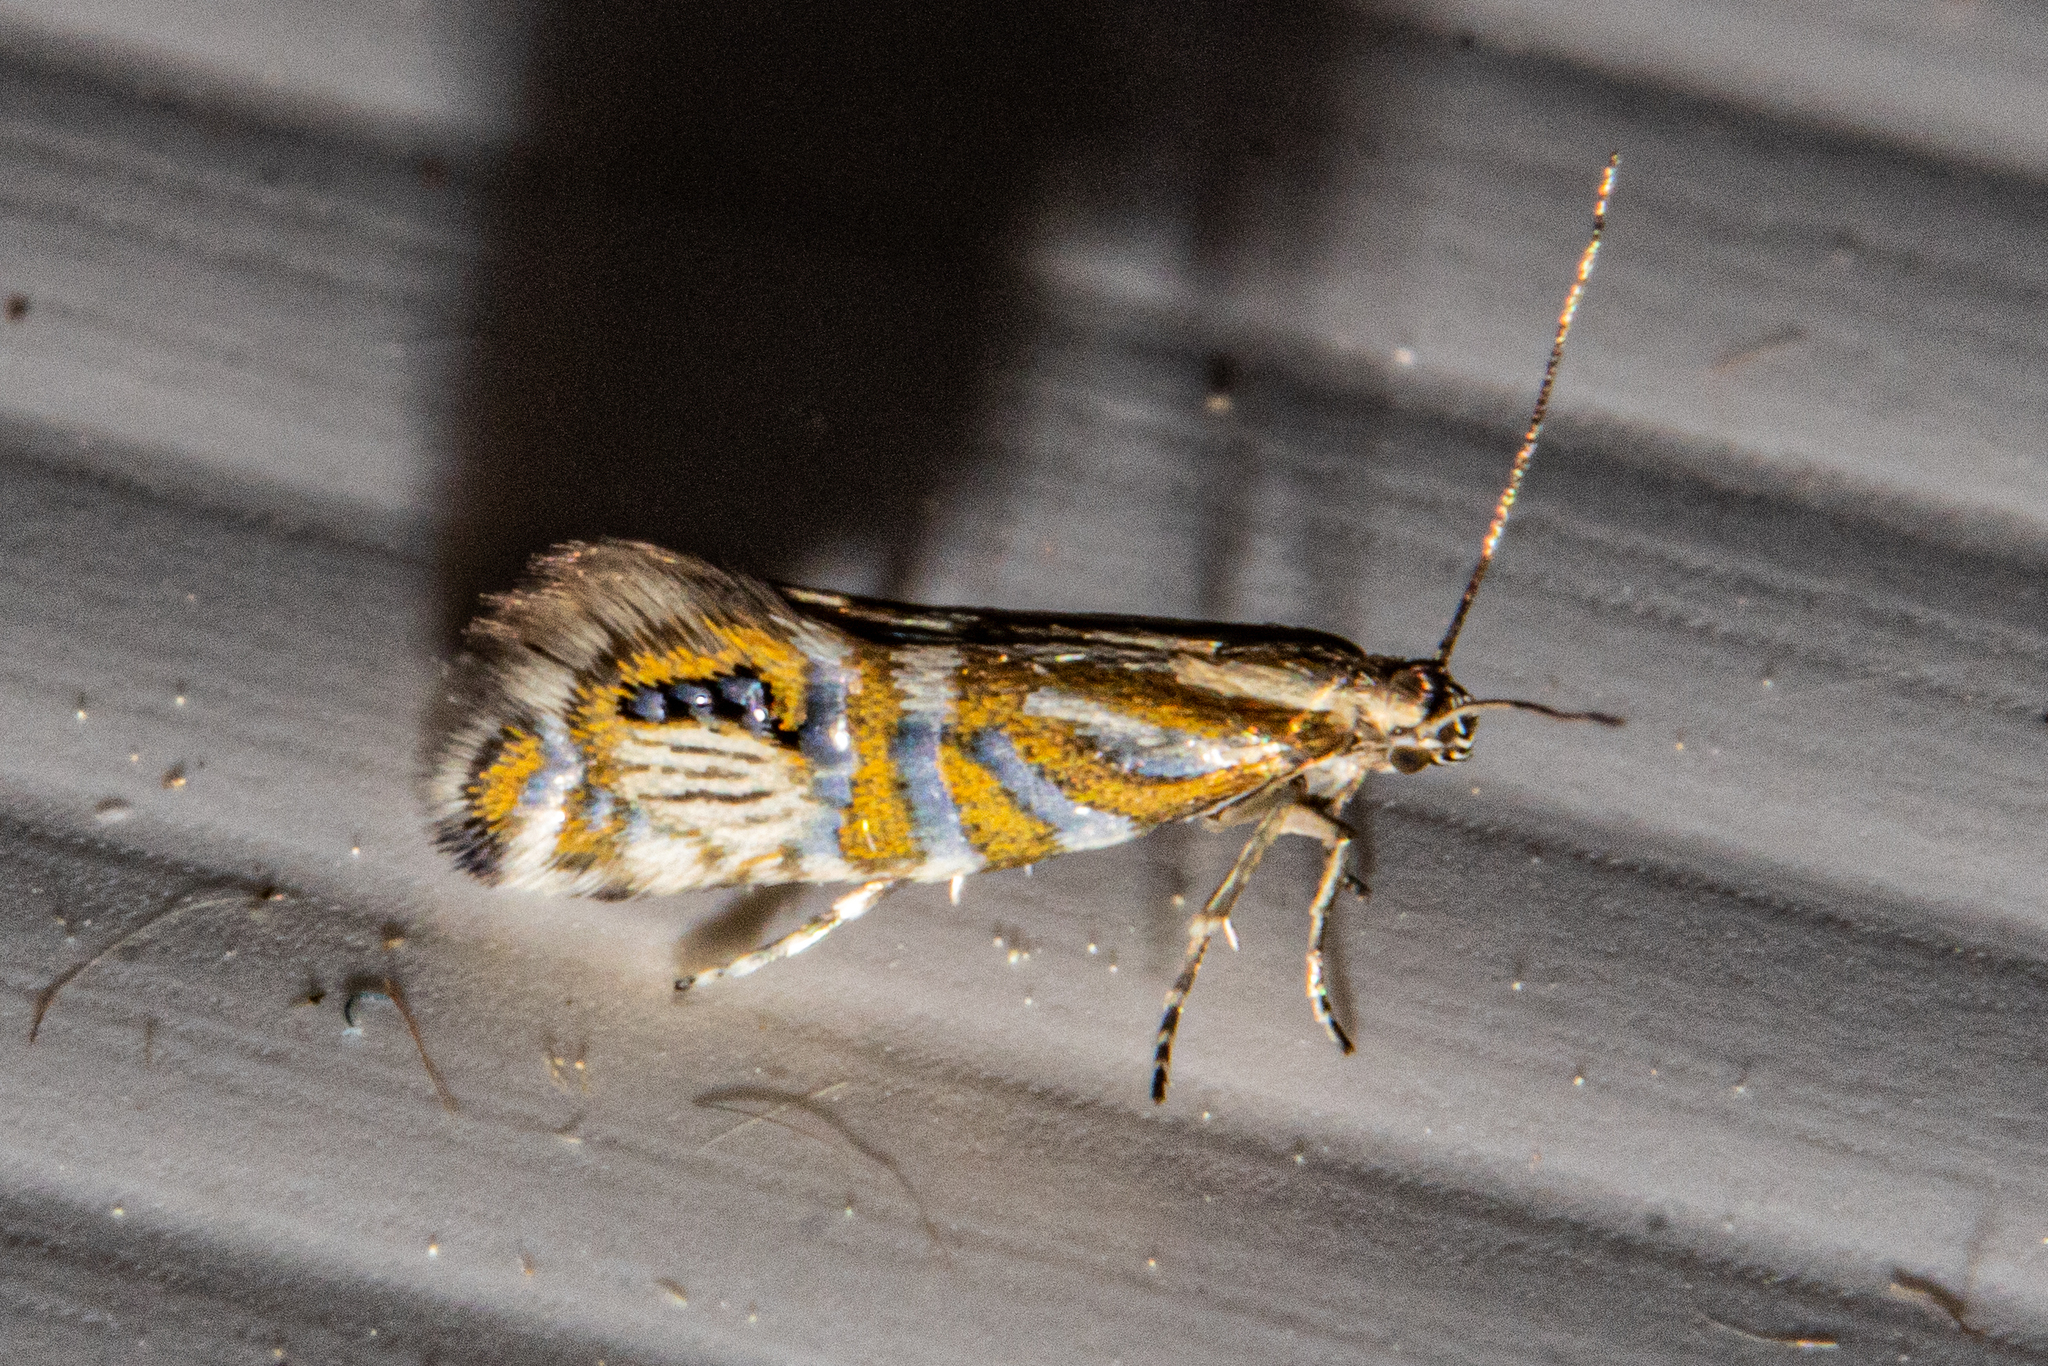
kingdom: Animalia
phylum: Arthropoda
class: Insecta
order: Lepidoptera
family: Glyphipterigidae
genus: Glyphipterix
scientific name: Glyphipterix triselena
